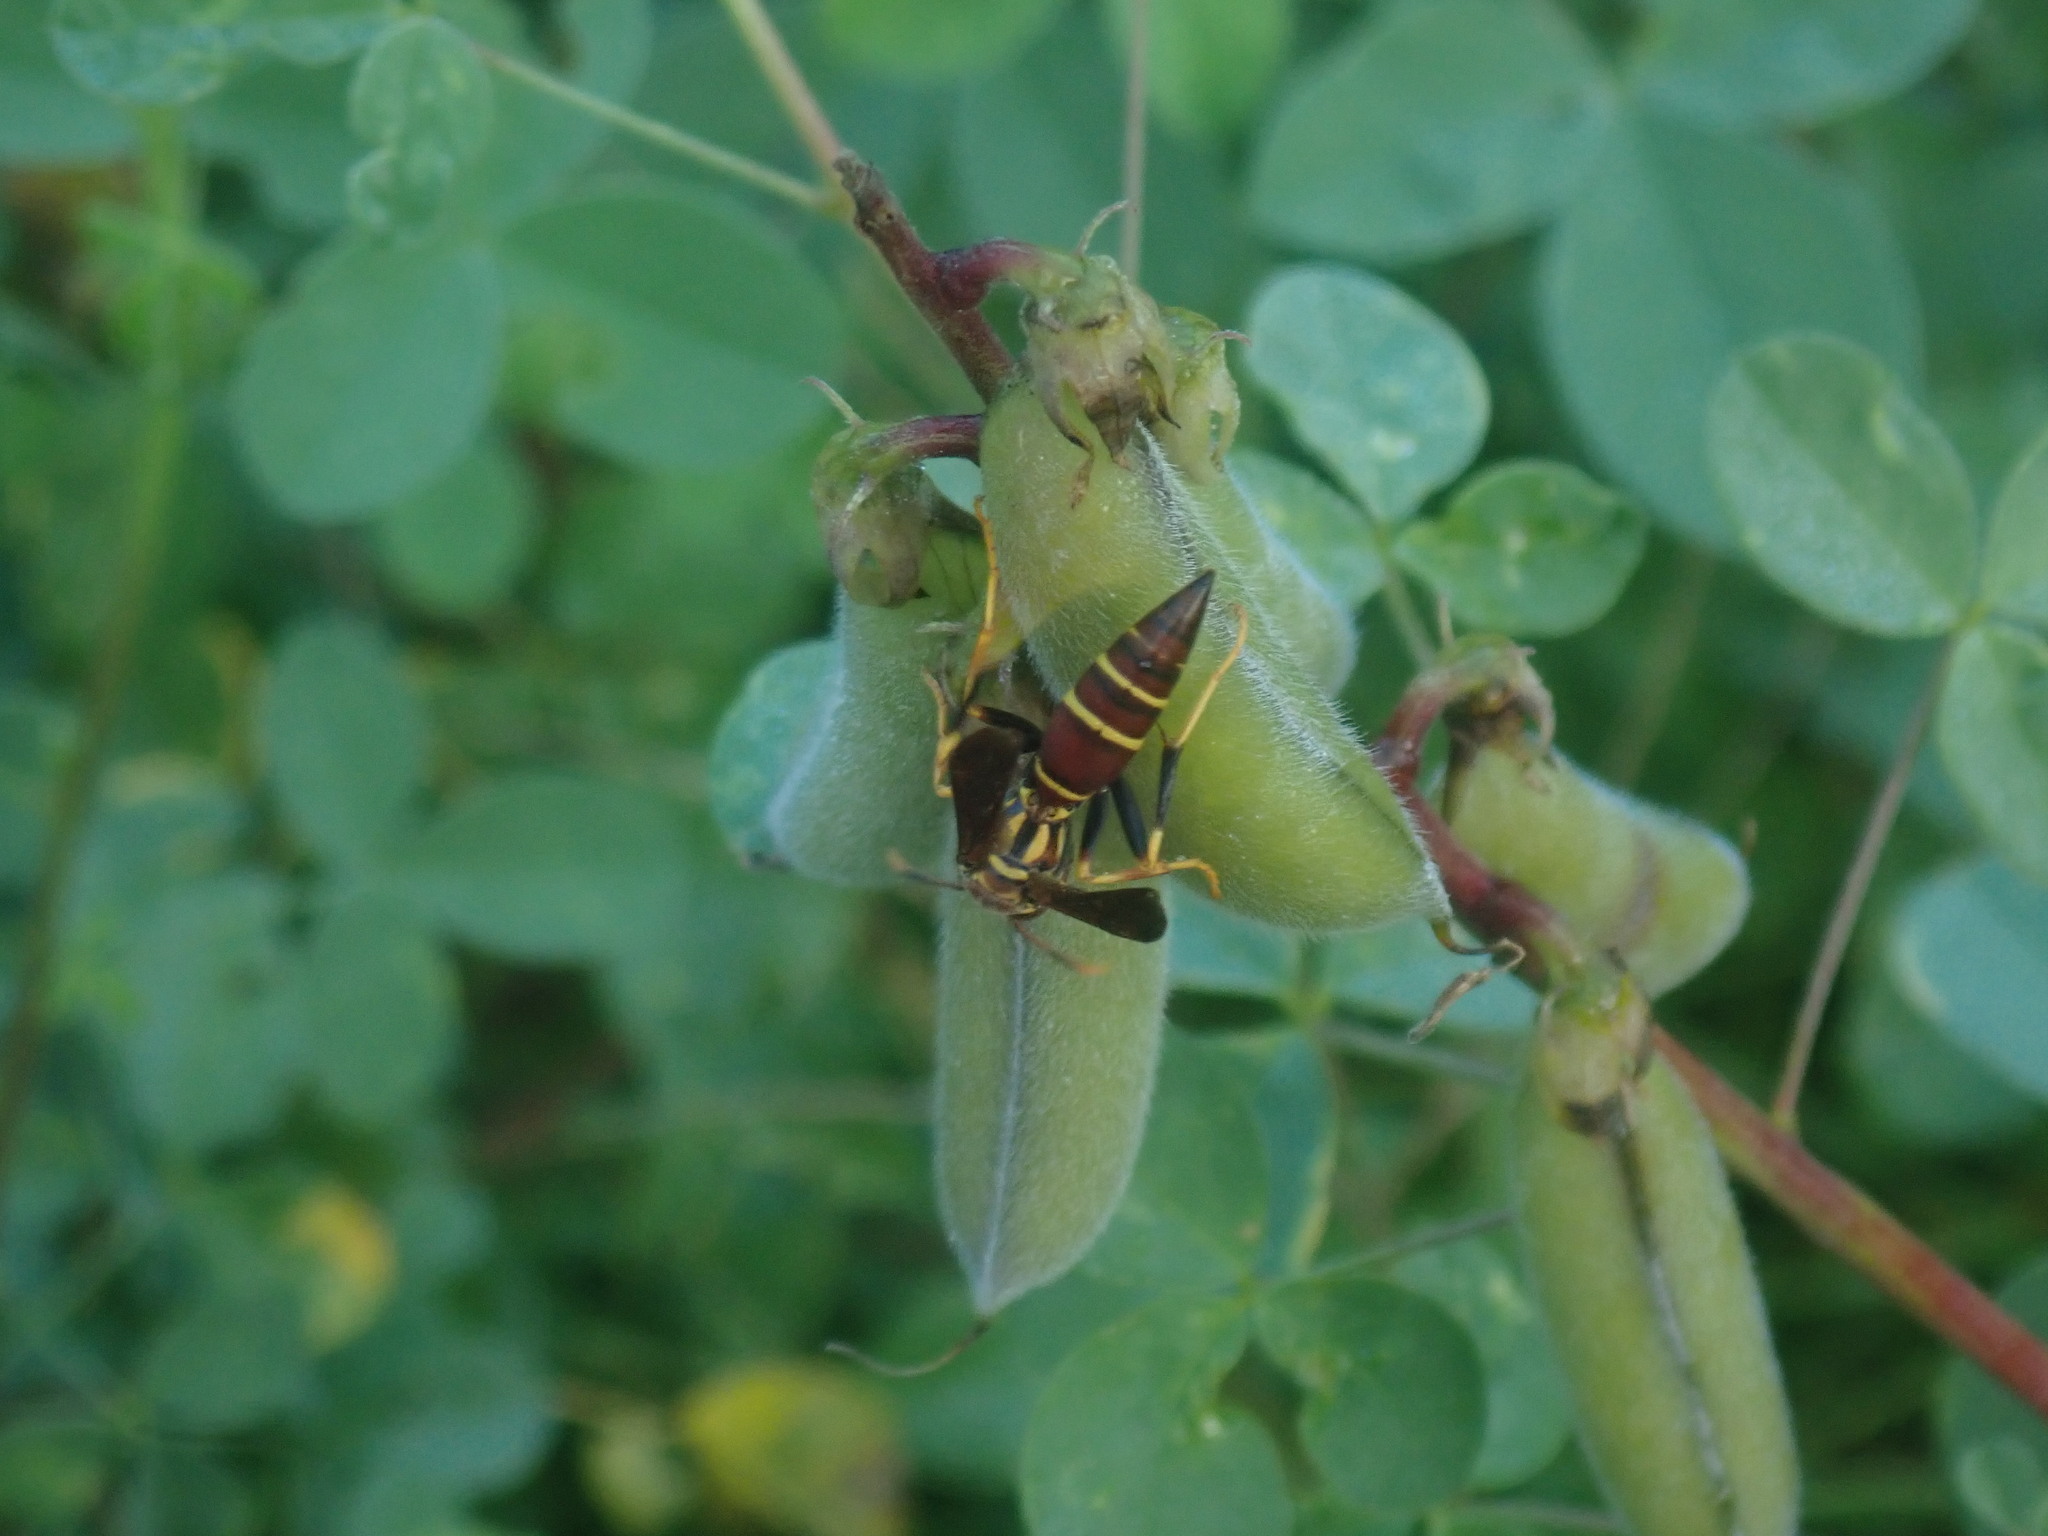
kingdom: Animalia
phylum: Arthropoda
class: Insecta
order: Hymenoptera
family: Eumenidae
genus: Polistes
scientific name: Polistes instabilis
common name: Unstable paper wasp
